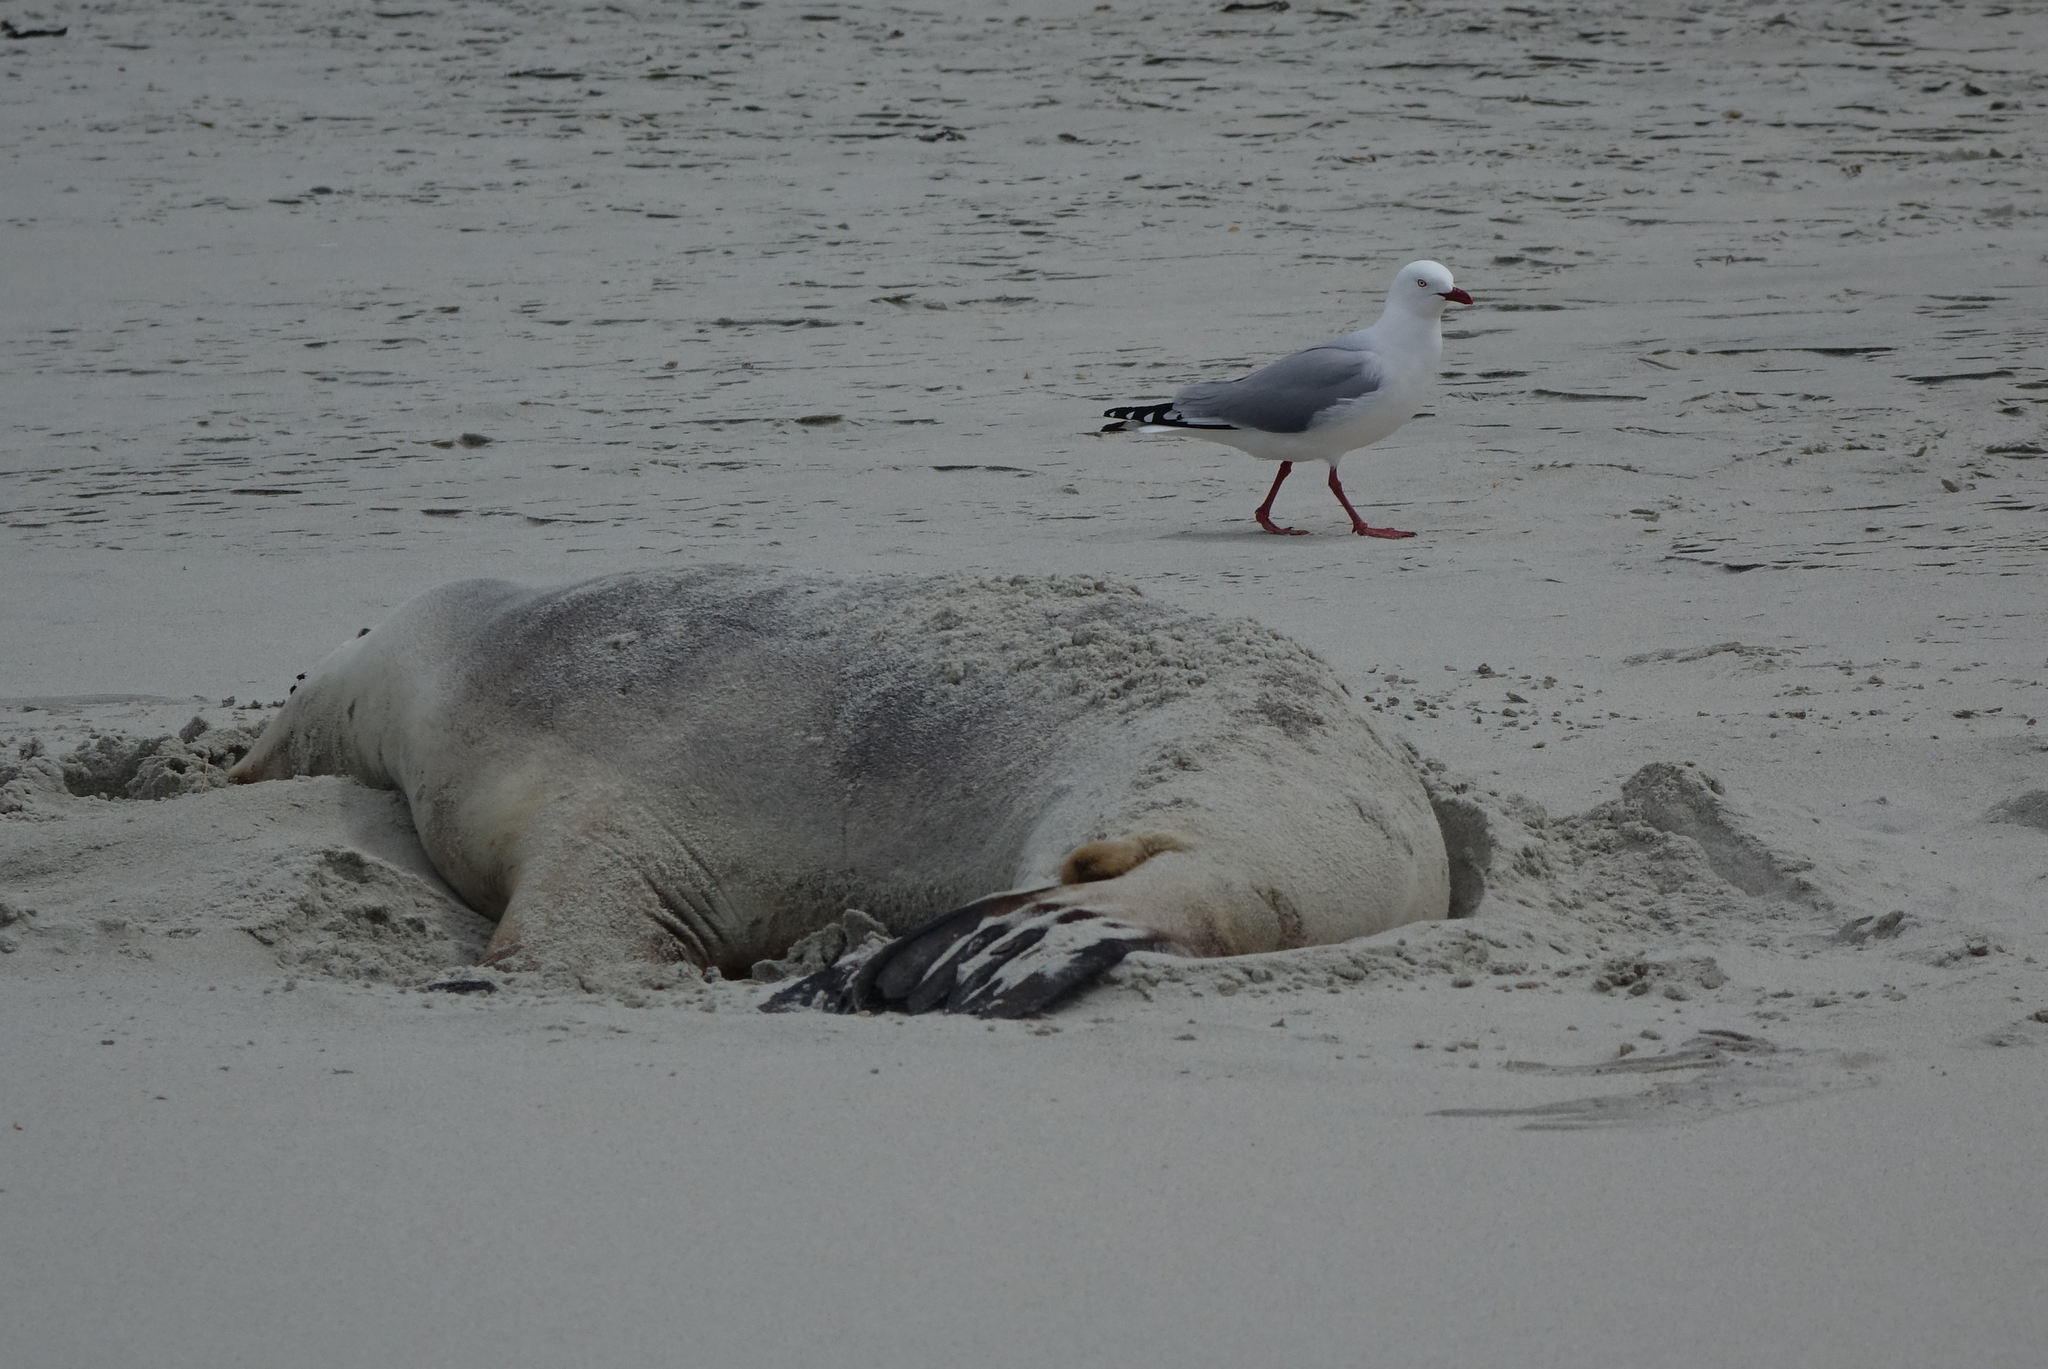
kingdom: Animalia
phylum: Chordata
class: Aves
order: Charadriiformes
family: Laridae
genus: Chroicocephalus
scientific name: Chroicocephalus novaehollandiae
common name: Silver gull
